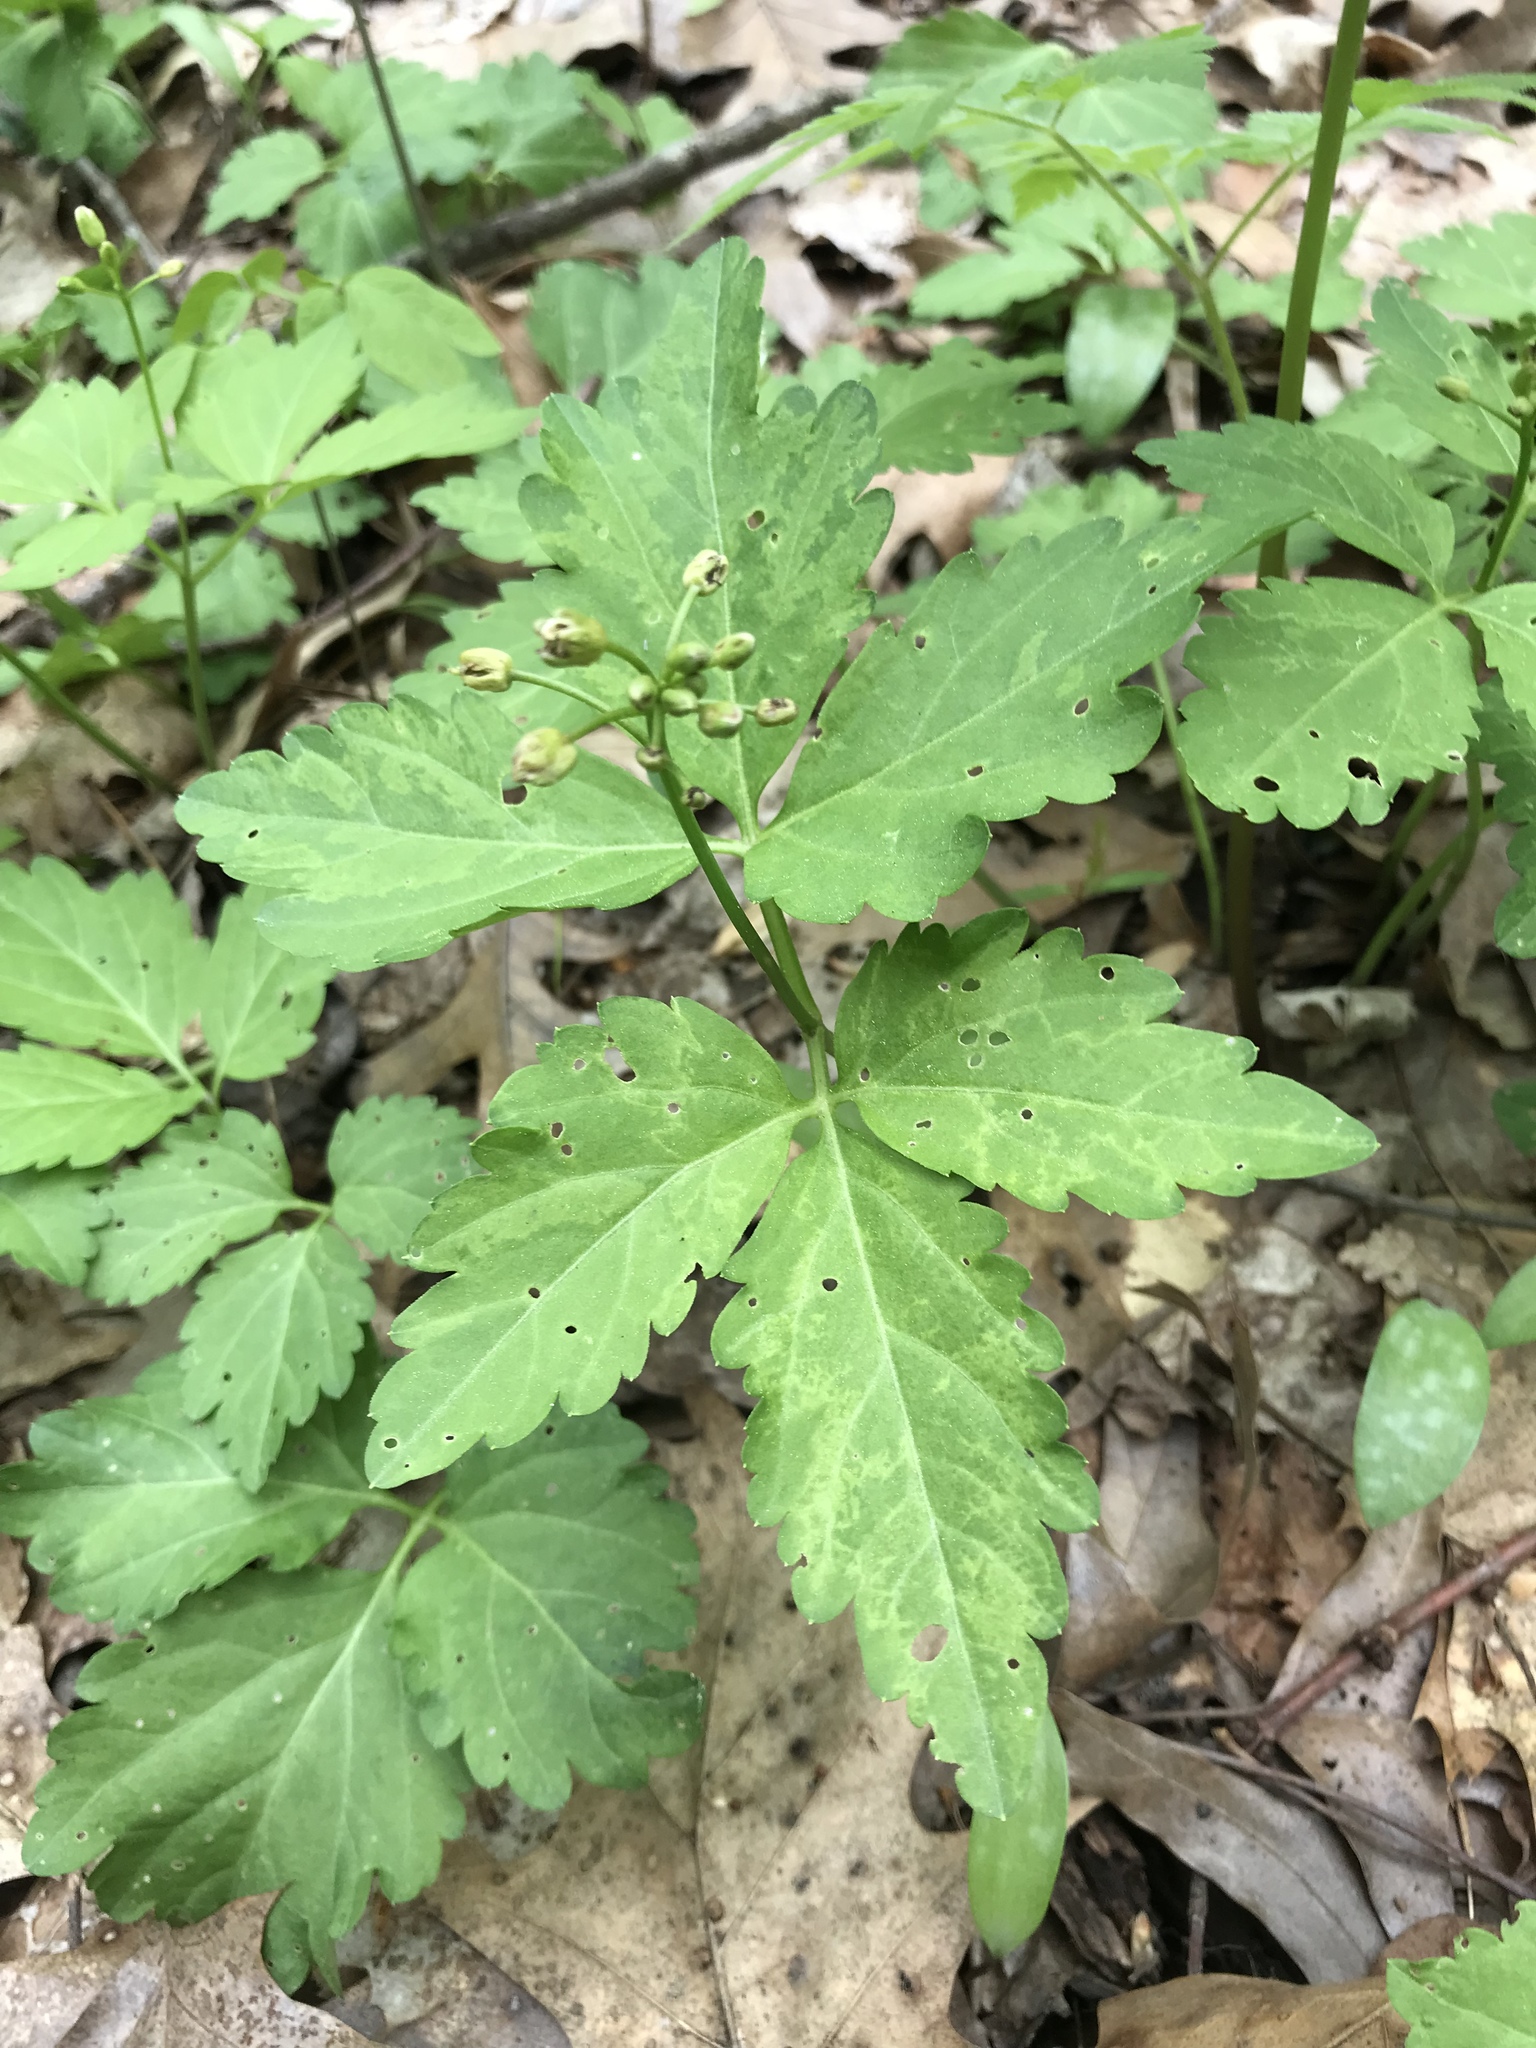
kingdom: Plantae
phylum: Tracheophyta
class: Magnoliopsida
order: Brassicales
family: Brassicaceae
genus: Cardamine
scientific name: Cardamine diphylla
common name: Broad-leaved toothwort
